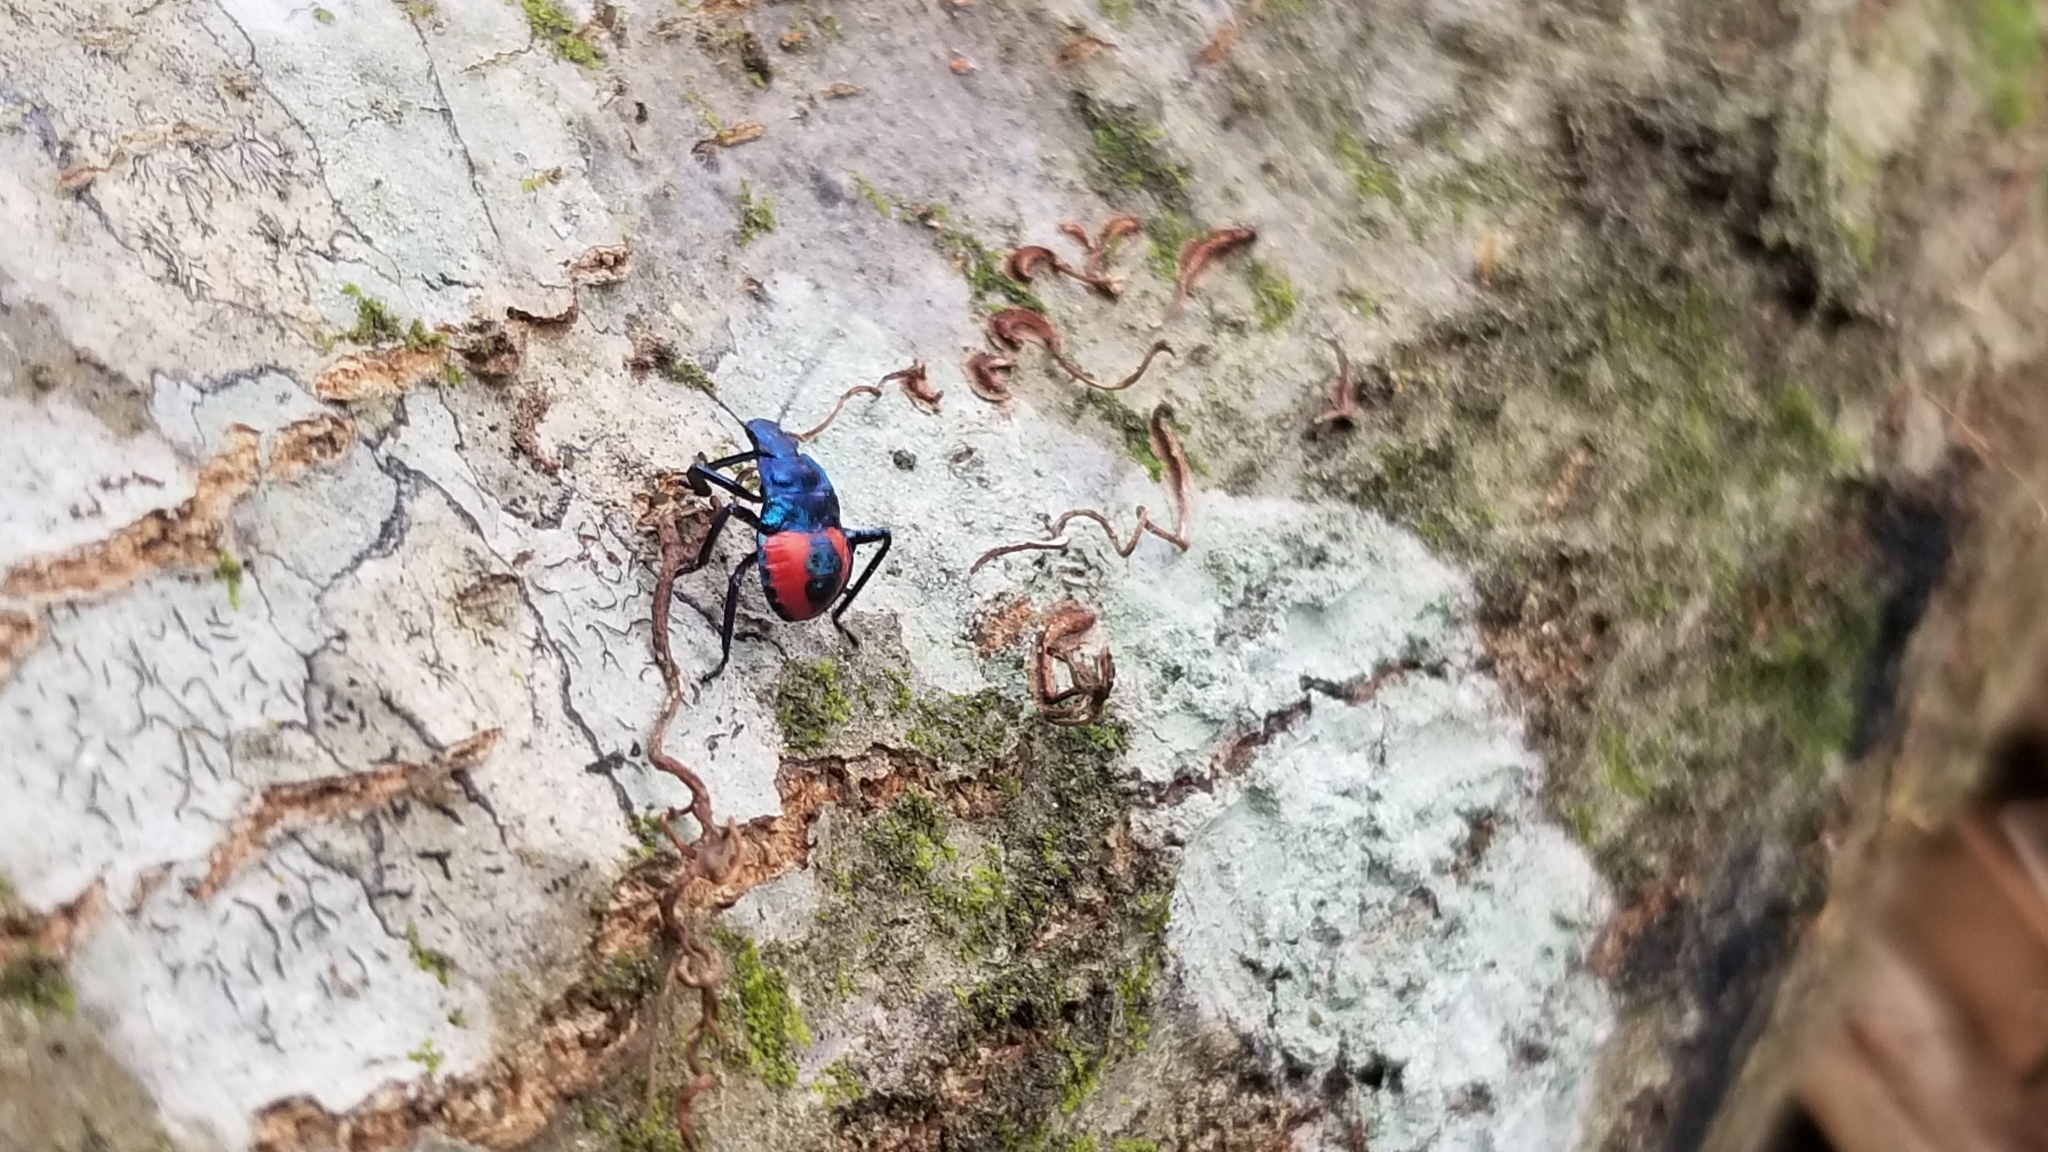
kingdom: Animalia
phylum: Arthropoda
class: Insecta
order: Hemiptera
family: Pentatomidae
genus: Euthyrhynchus
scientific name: Euthyrhynchus floridanus
